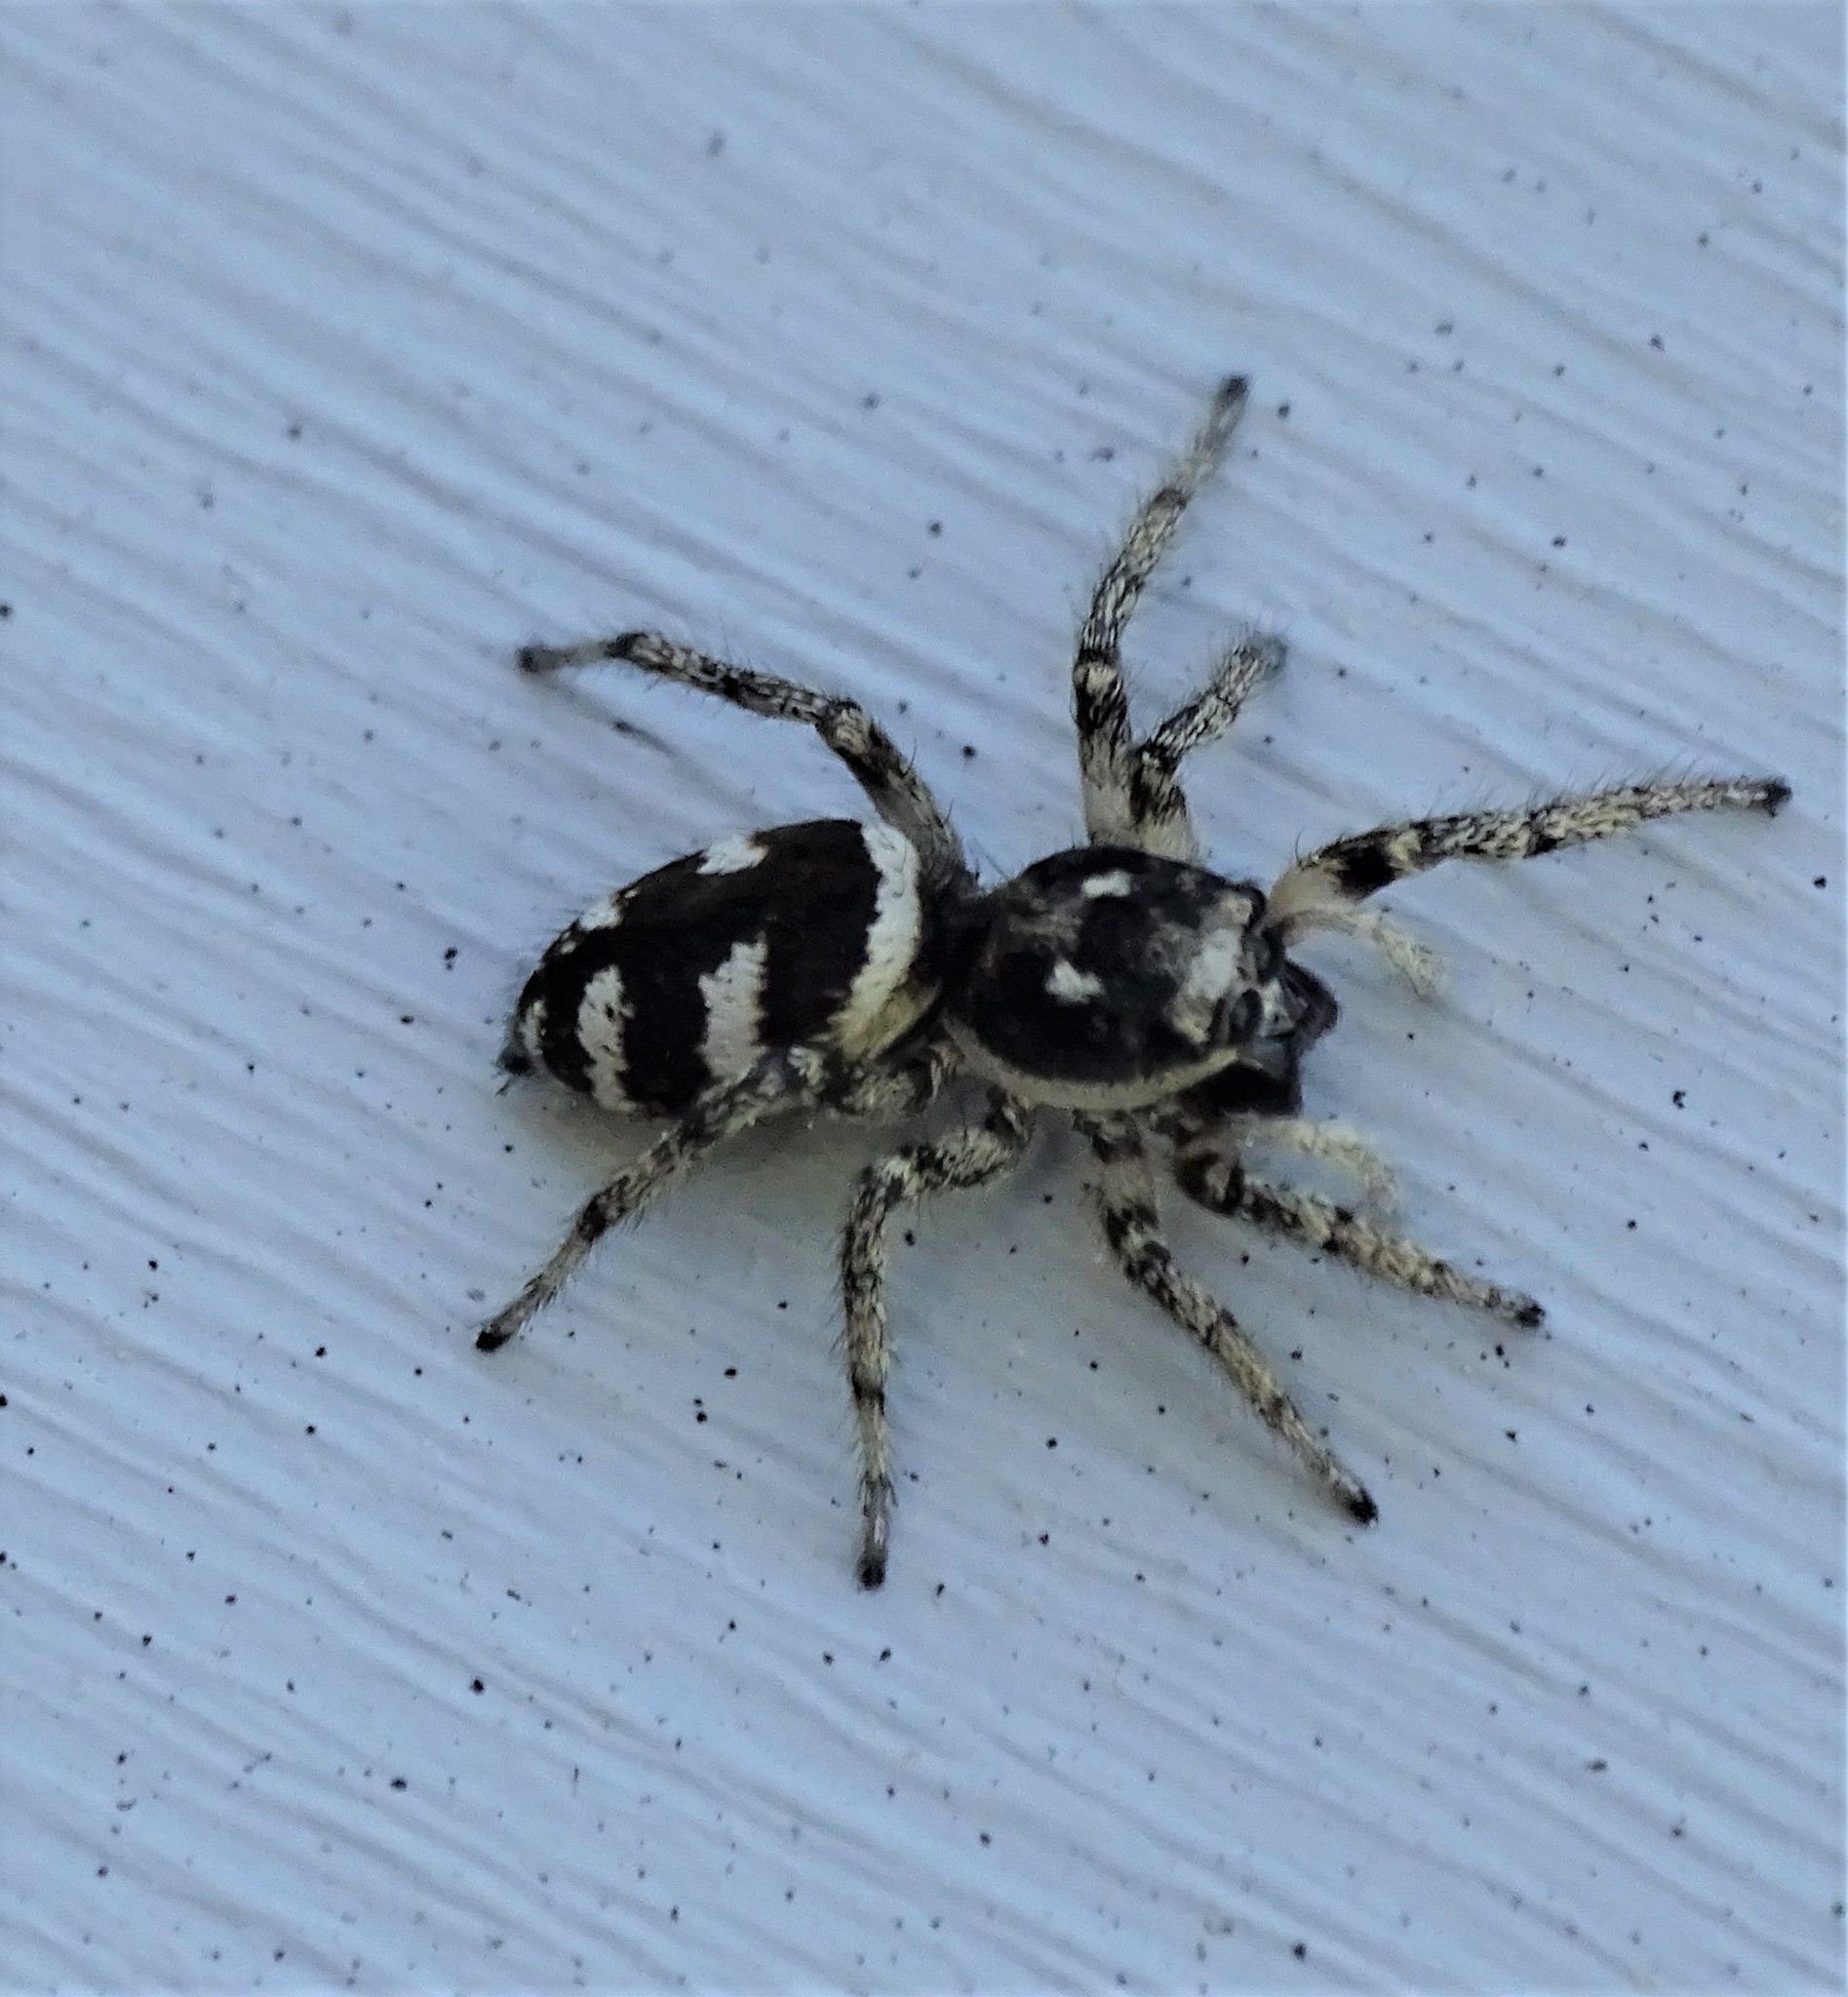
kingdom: Animalia
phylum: Arthropoda
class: Arachnida
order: Araneae
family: Salticidae
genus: Salticus
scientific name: Salticus scenicus
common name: Zebra jumper
